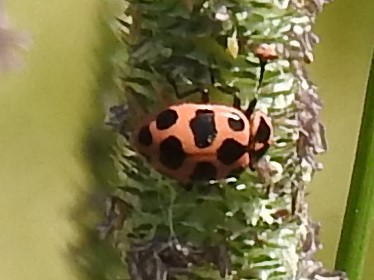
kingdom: Animalia
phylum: Arthropoda
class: Insecta
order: Coleoptera
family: Coccinellidae
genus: Coleomegilla
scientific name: Coleomegilla maculata
